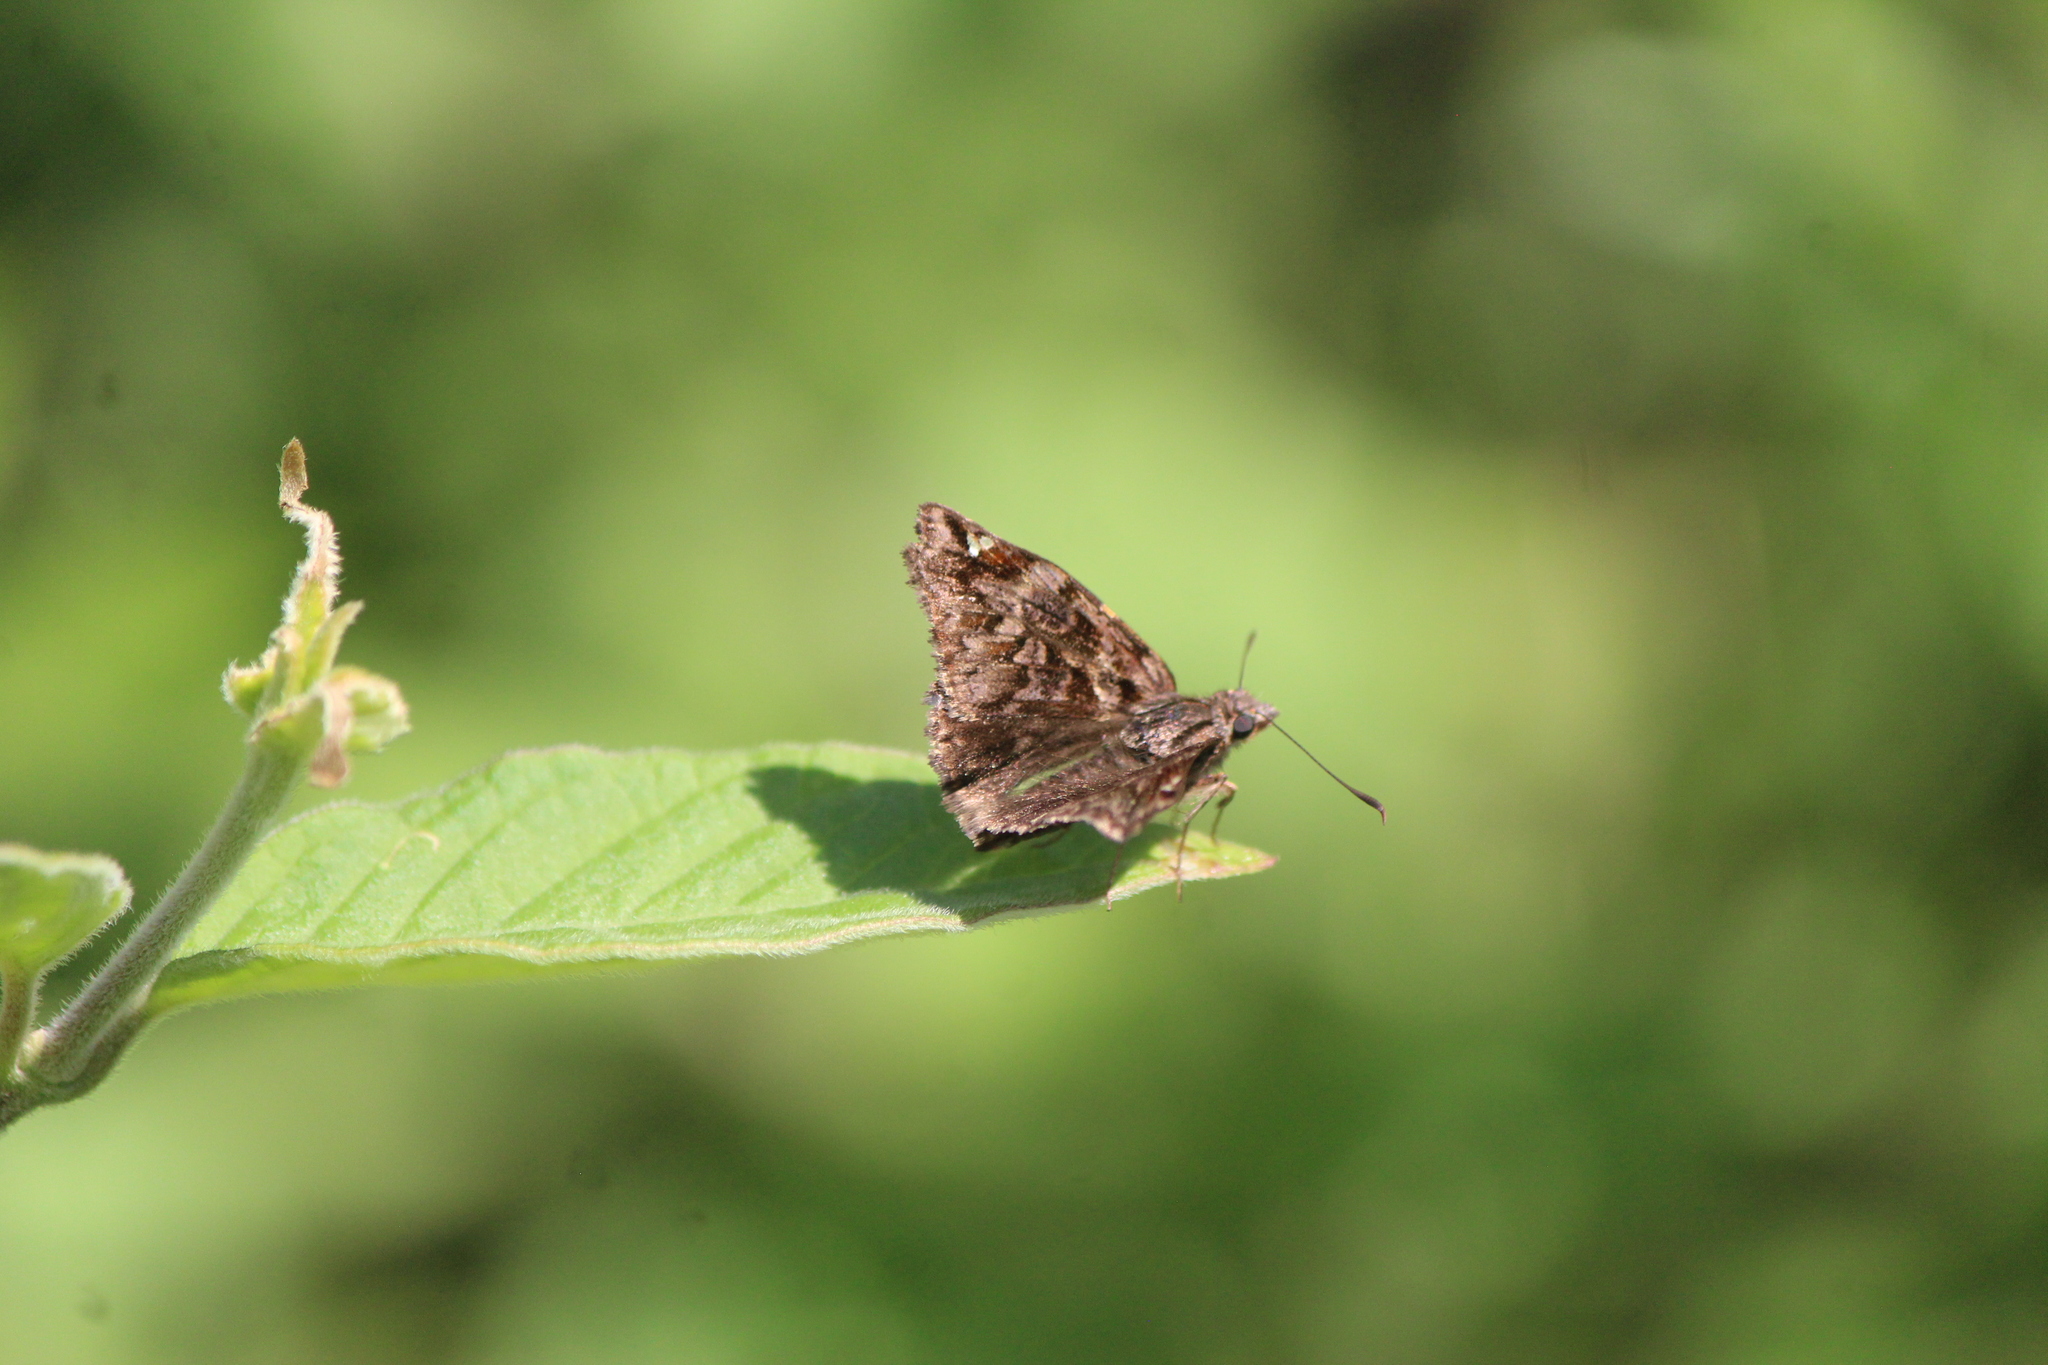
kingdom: Animalia
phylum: Arthropoda
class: Insecta
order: Lepidoptera
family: Hesperiidae
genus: Noctuana
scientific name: Noctuana stator
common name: Red-studded skipper
